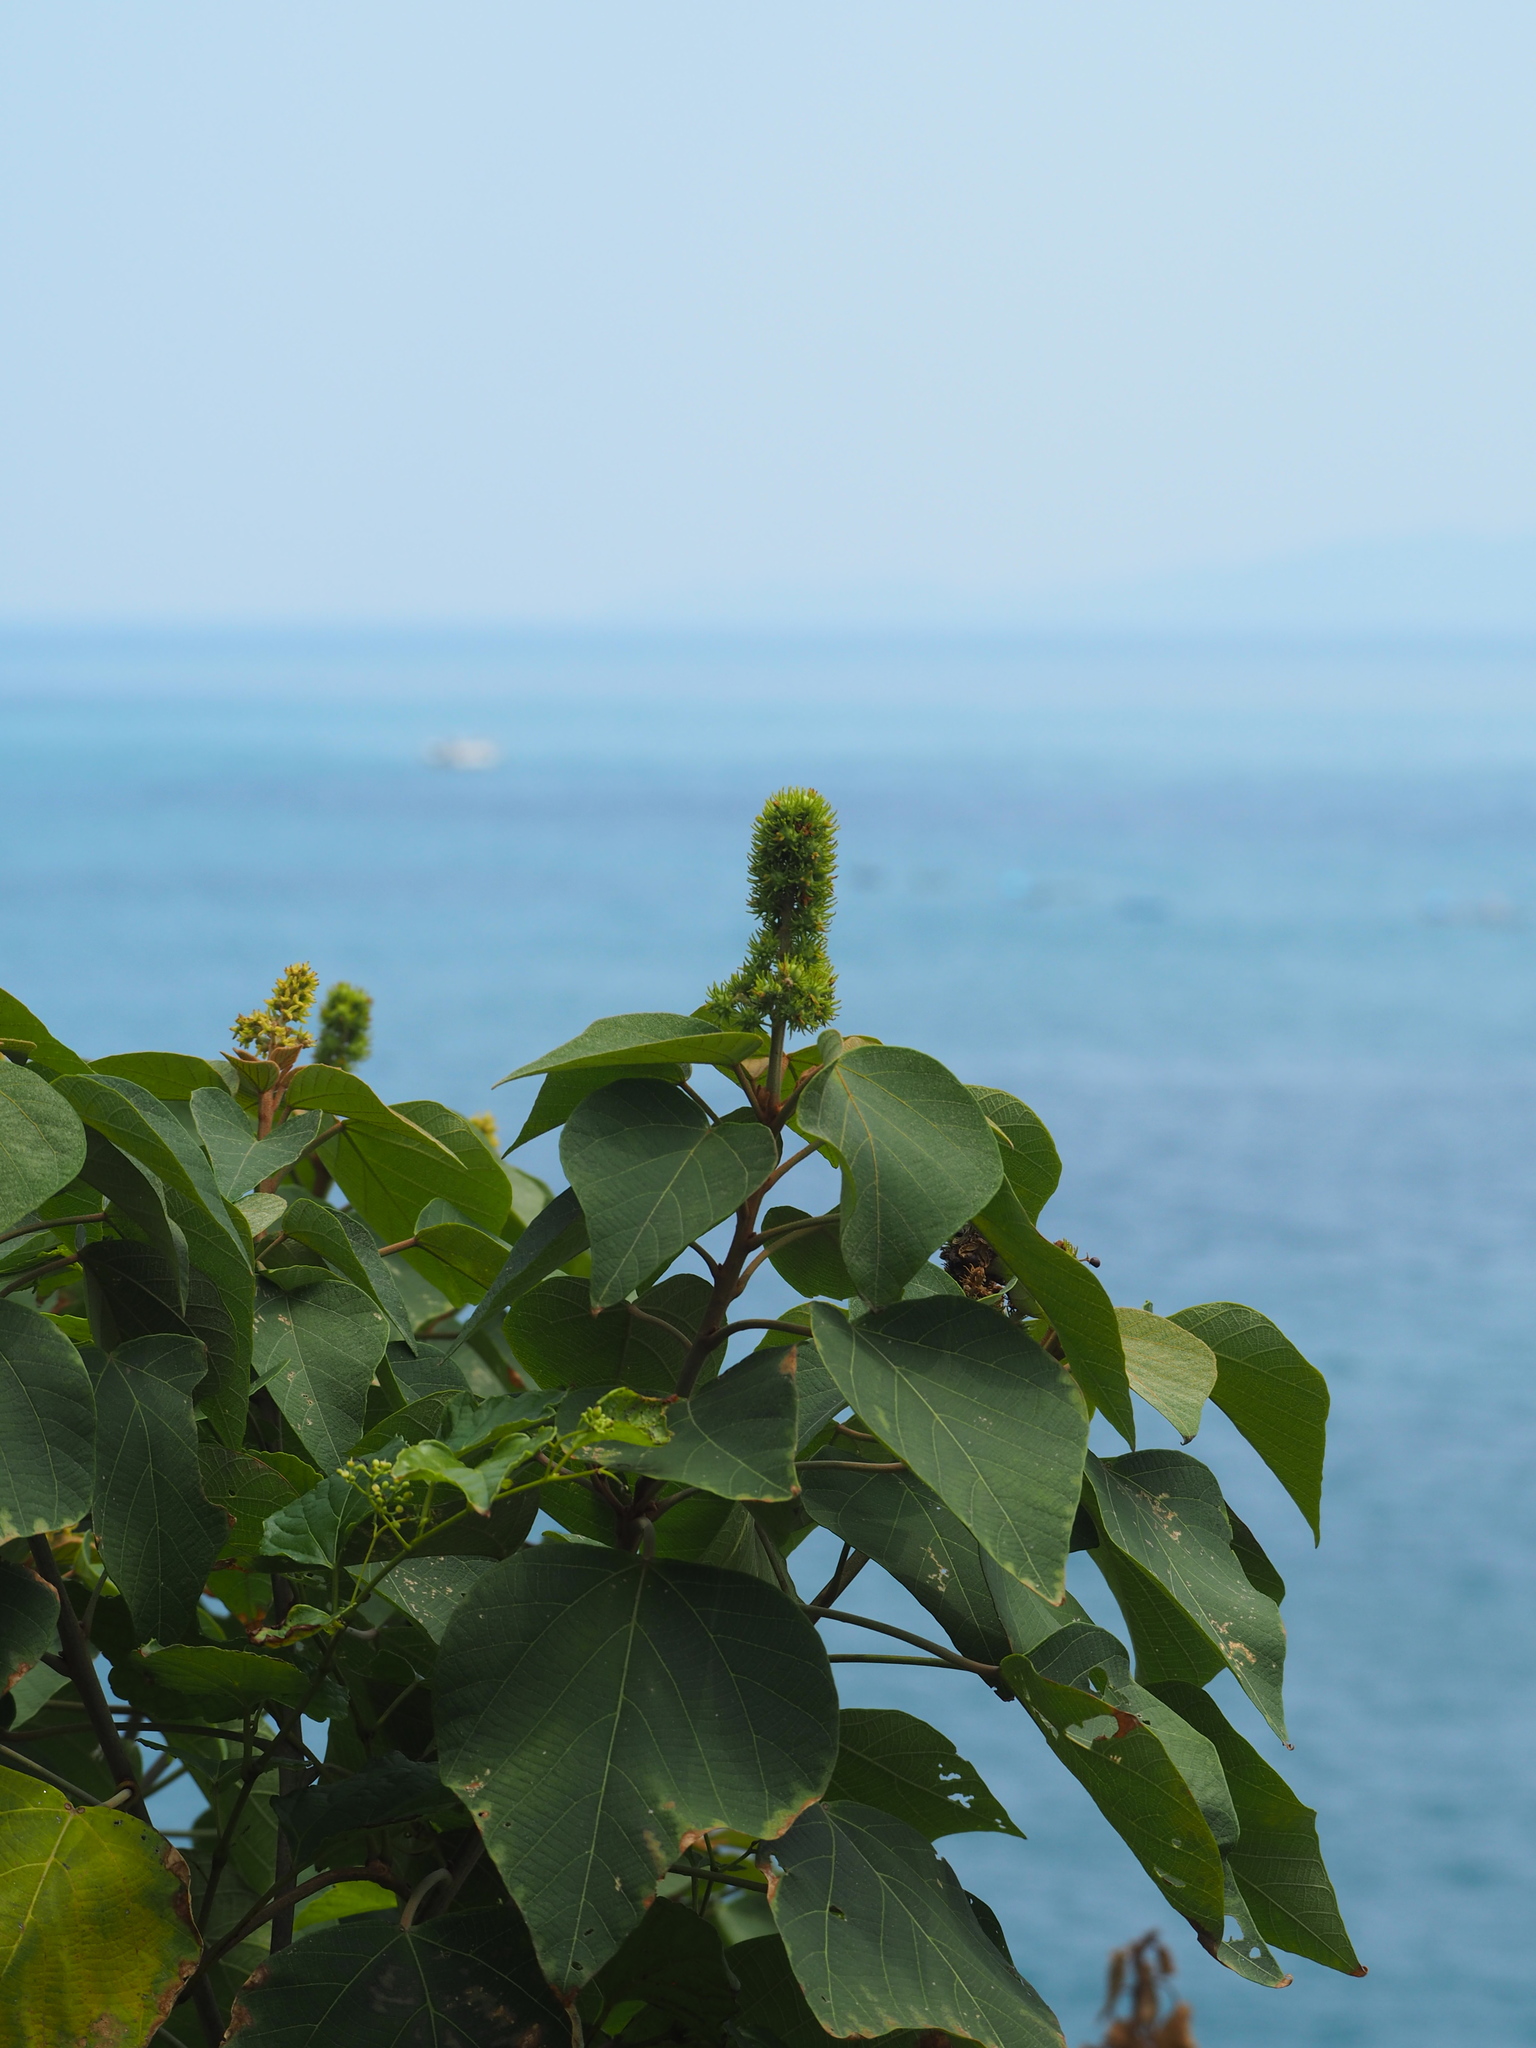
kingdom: Plantae
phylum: Tracheophyta
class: Magnoliopsida
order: Malpighiales
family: Euphorbiaceae
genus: Mallotus
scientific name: Mallotus japonicus
